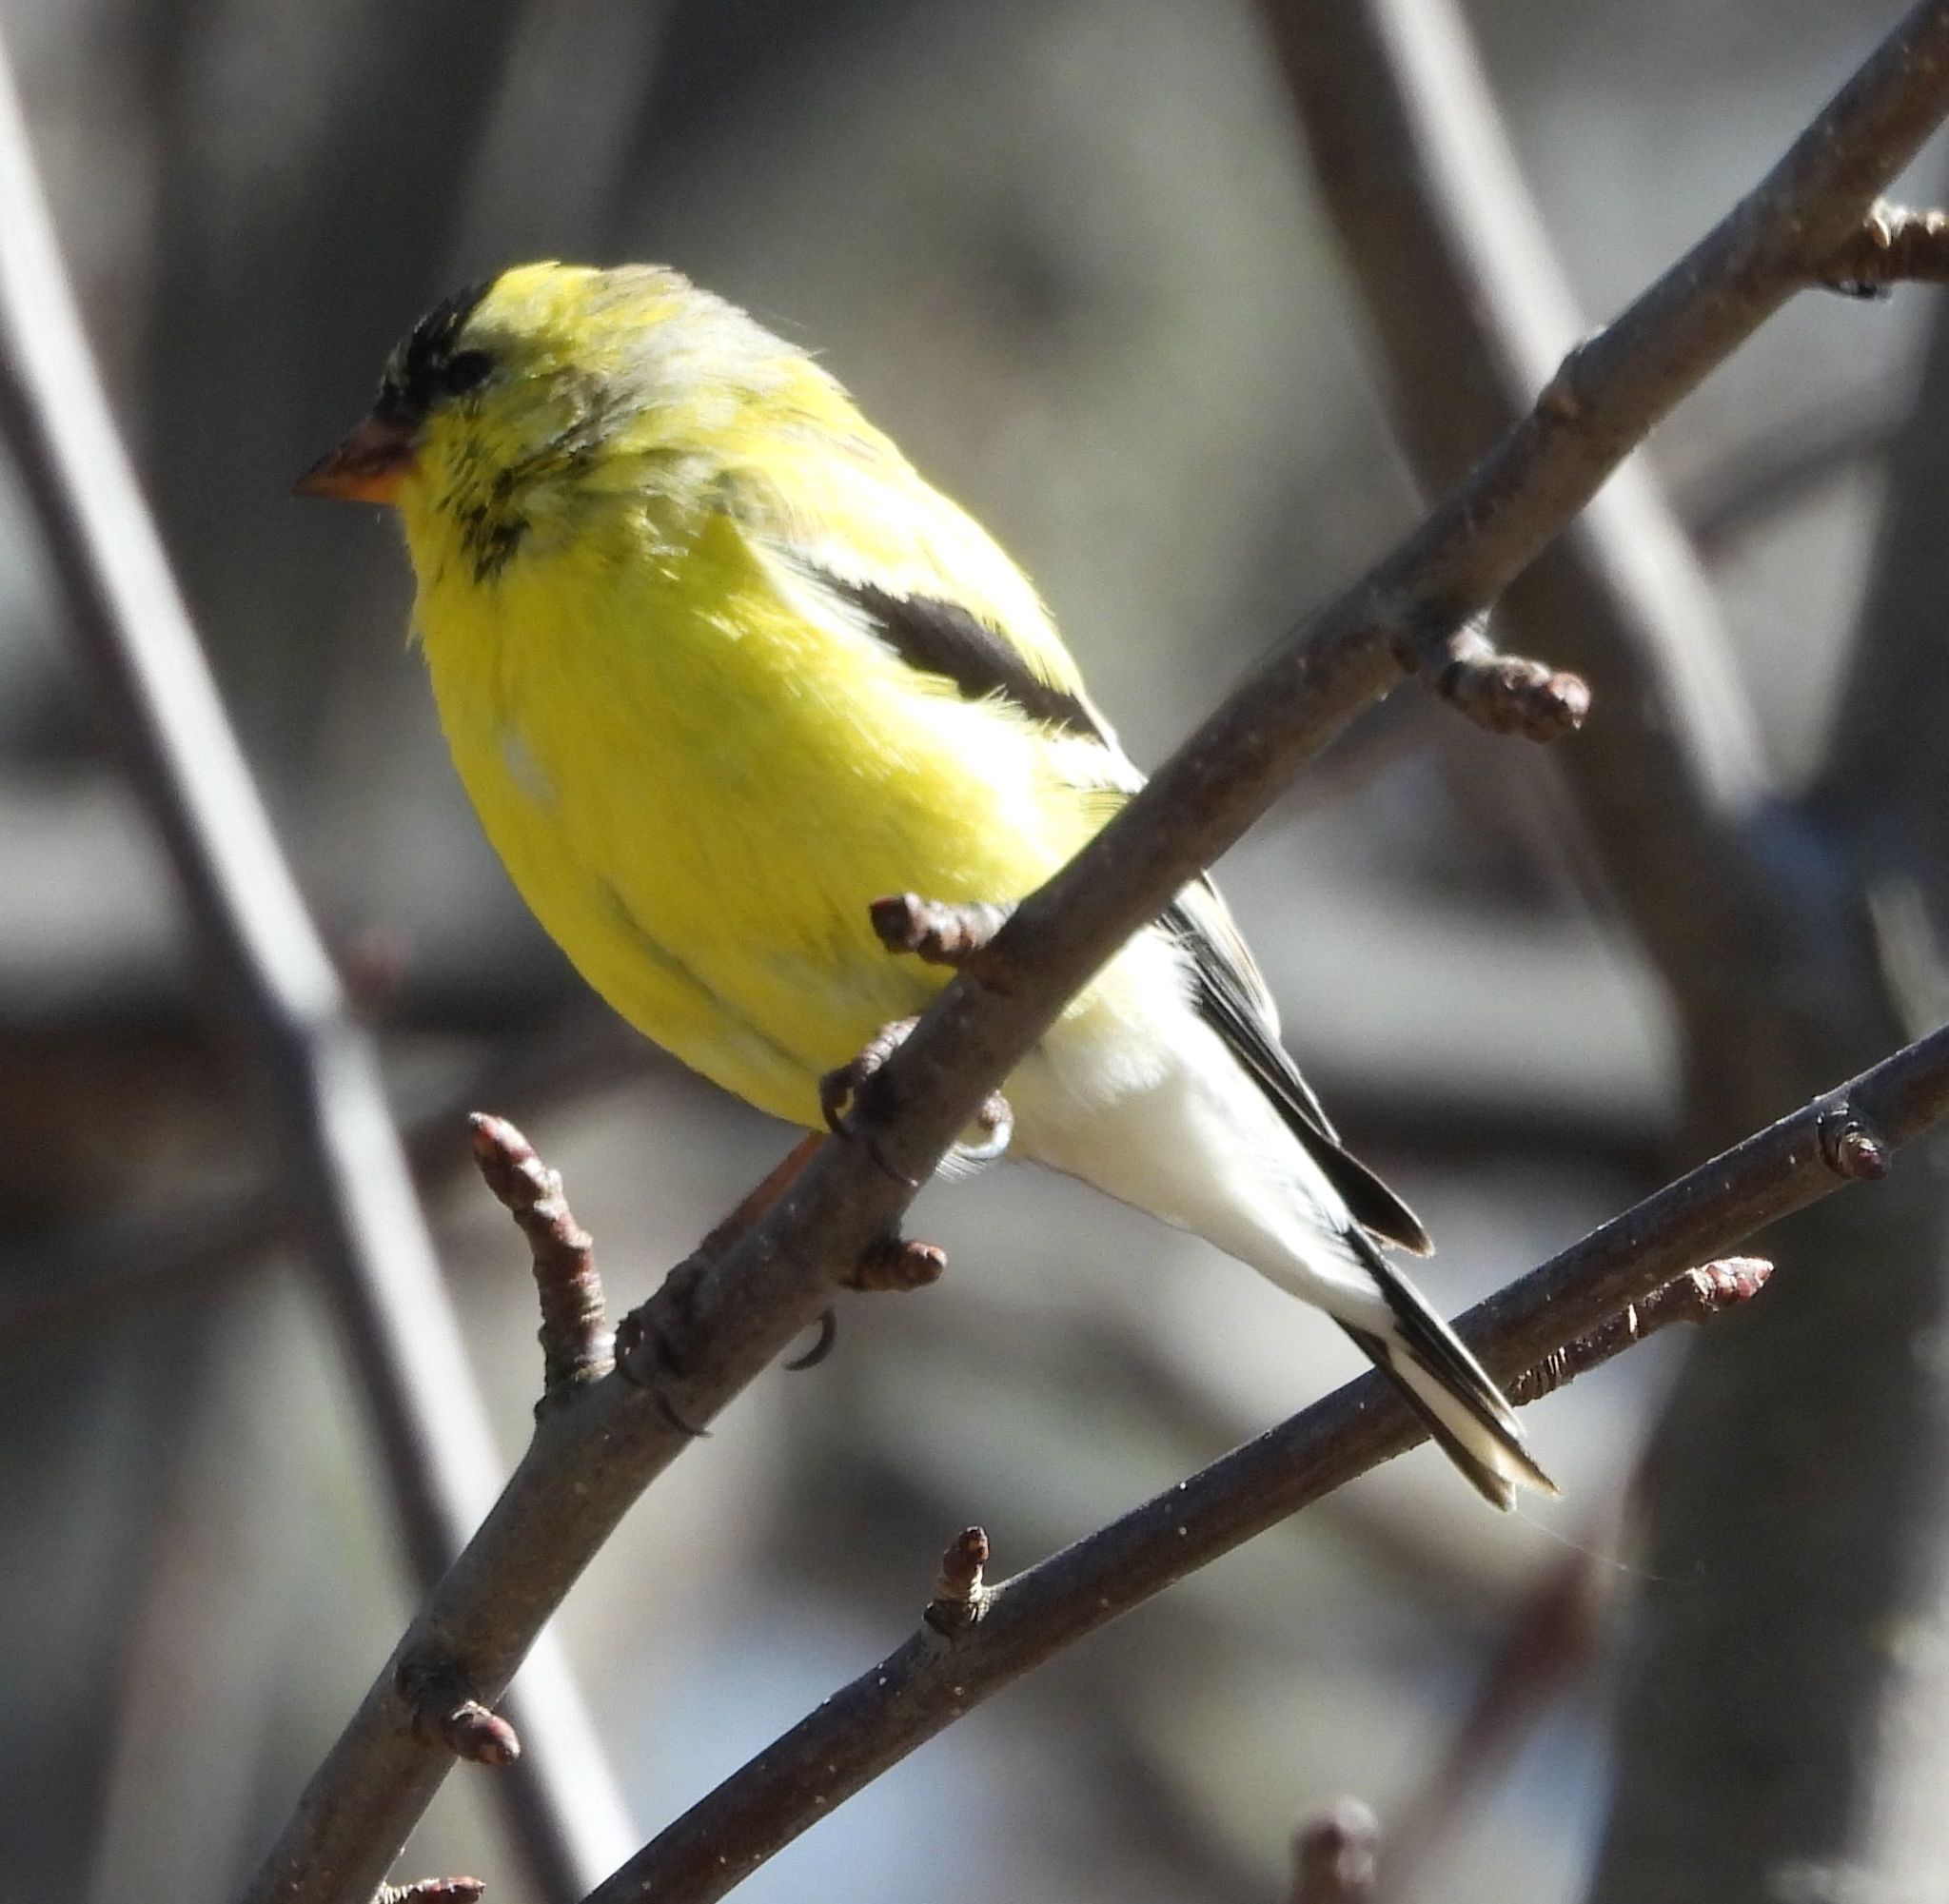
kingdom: Animalia
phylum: Chordata
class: Aves
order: Passeriformes
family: Fringillidae
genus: Spinus
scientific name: Spinus tristis
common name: American goldfinch
